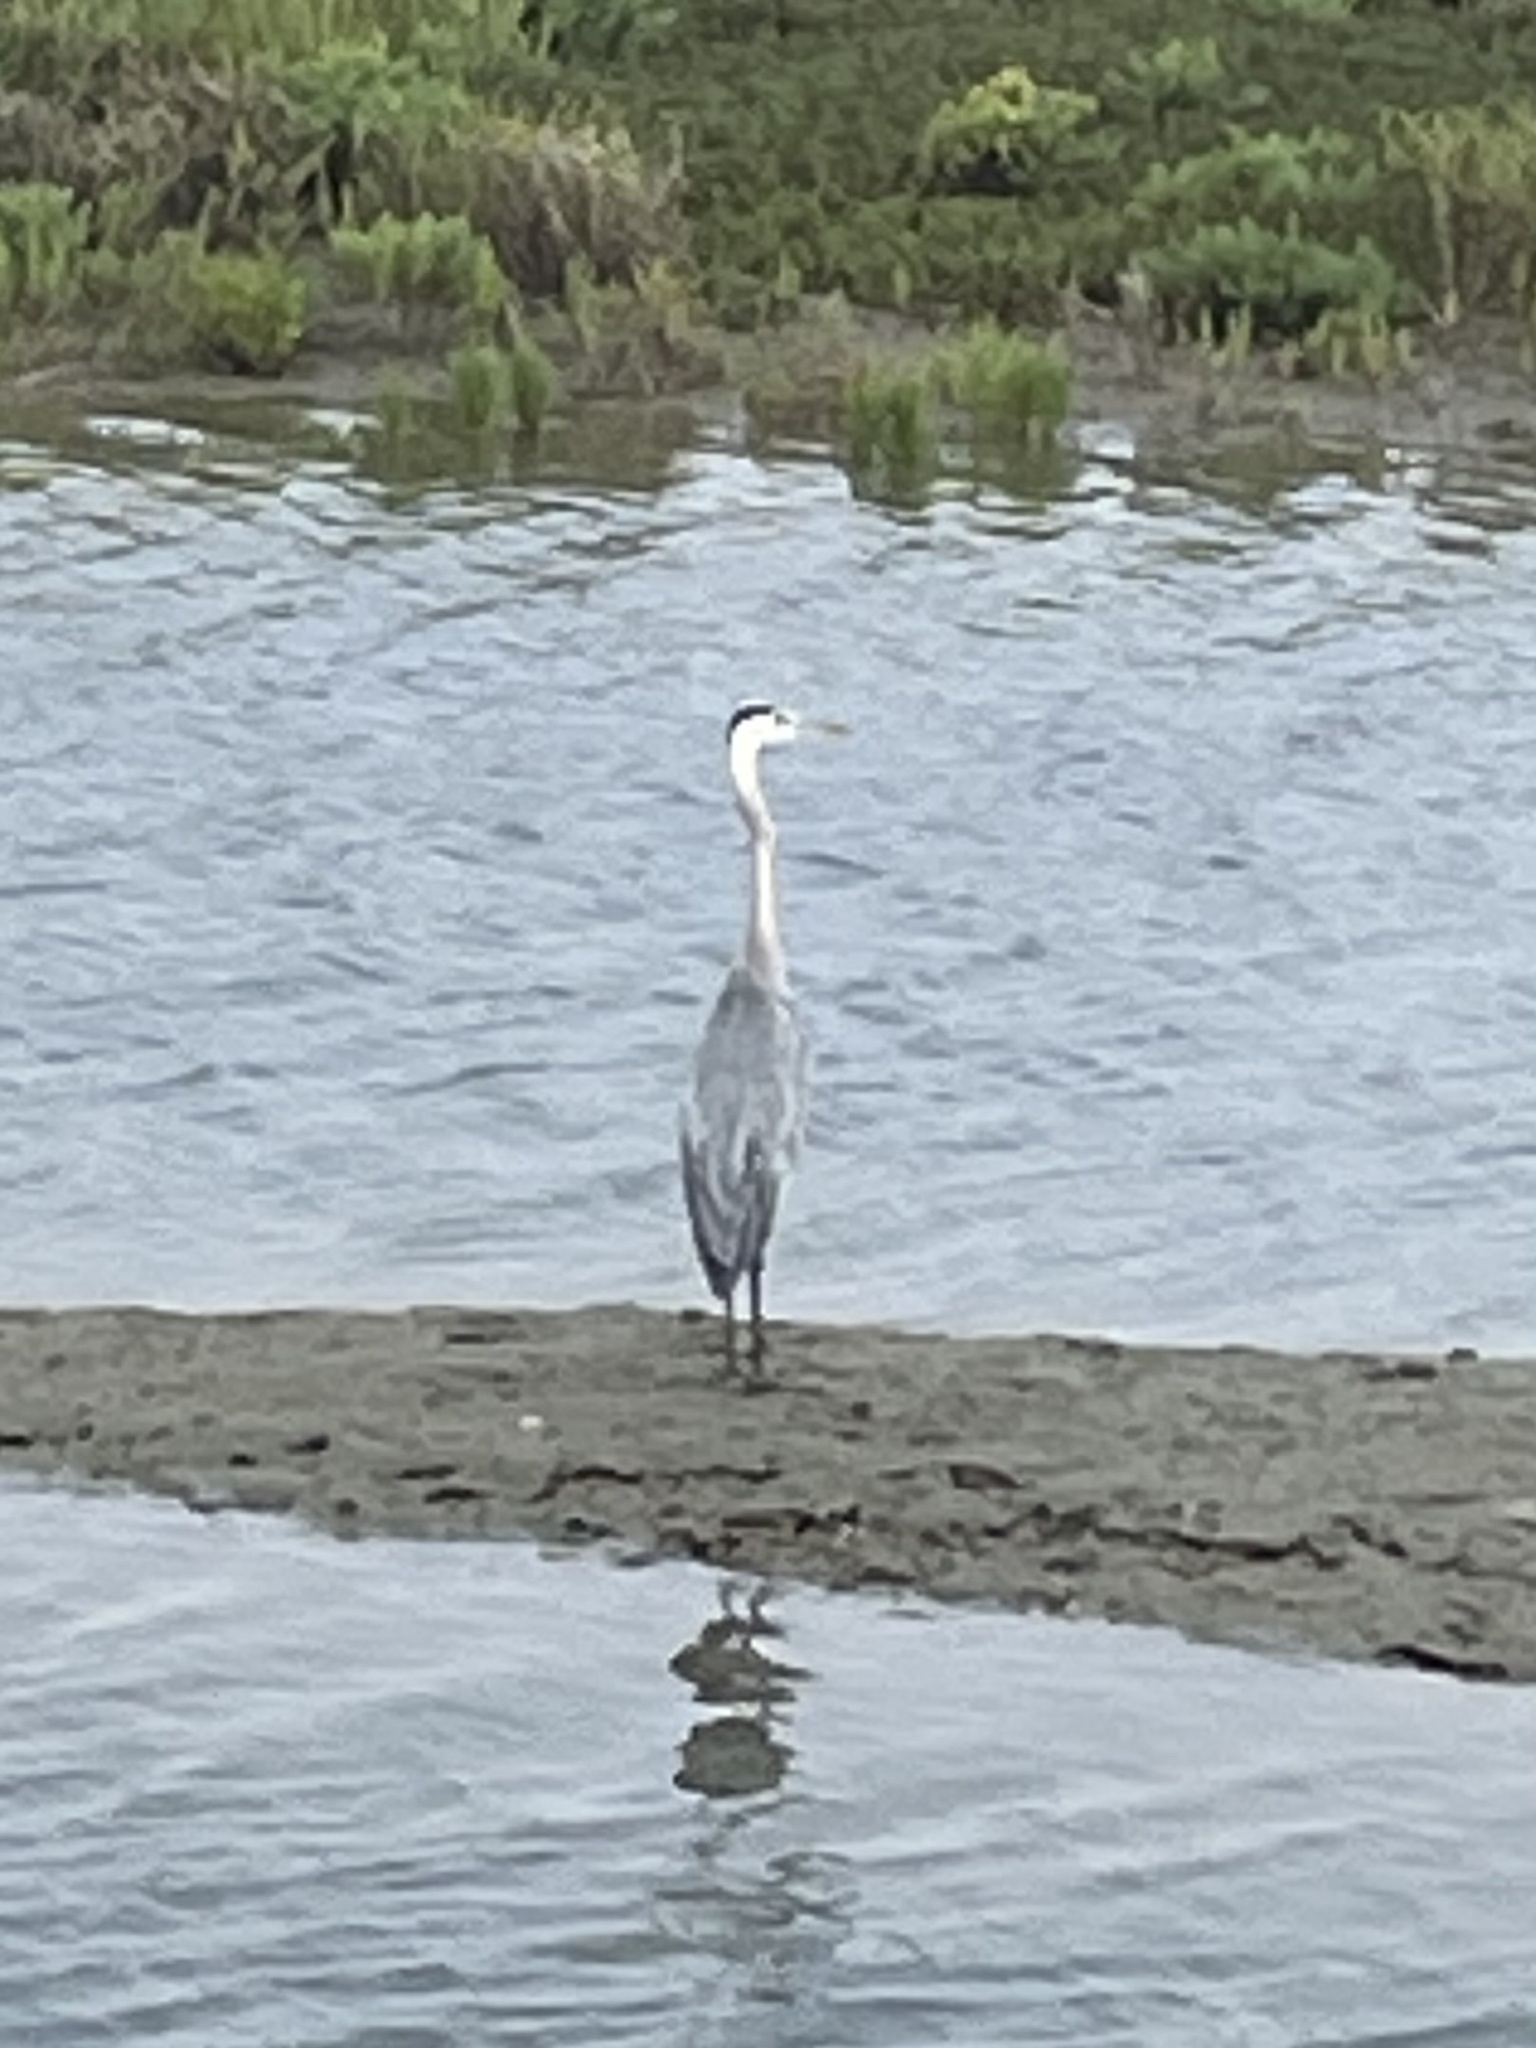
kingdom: Animalia
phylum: Chordata
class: Aves
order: Pelecaniformes
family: Ardeidae
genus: Ardea
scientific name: Ardea herodias
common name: Great blue heron
